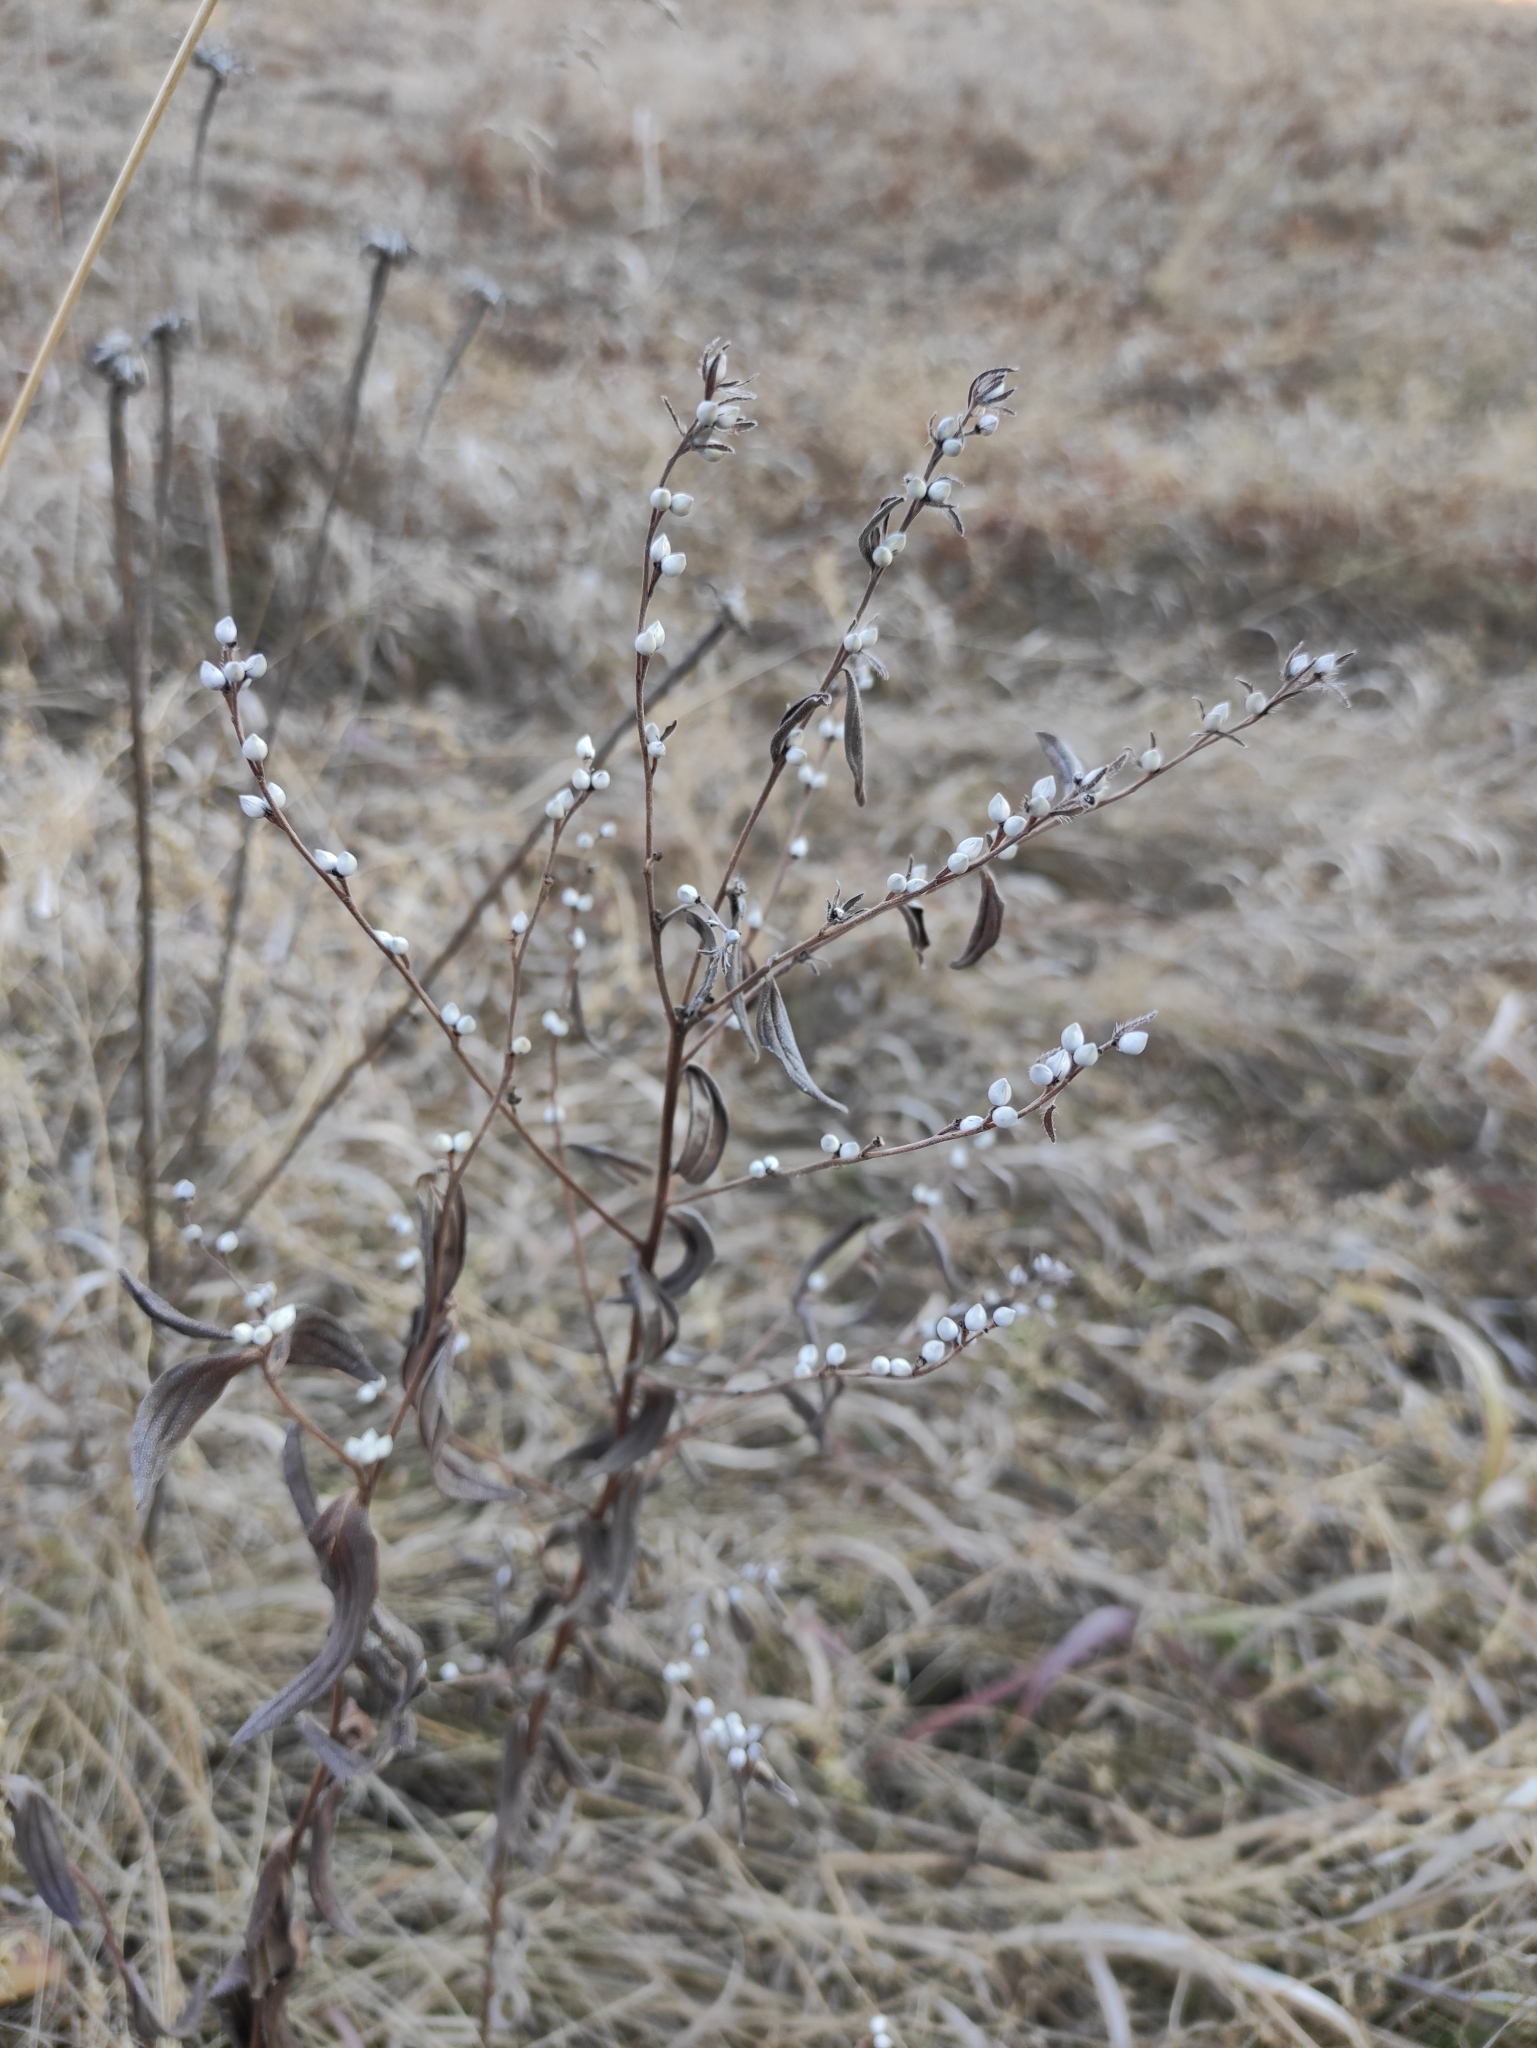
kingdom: Plantae
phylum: Tracheophyta
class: Magnoliopsida
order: Boraginales
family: Boraginaceae
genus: Lithospermum
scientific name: Lithospermum officinale
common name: Common gromwell
